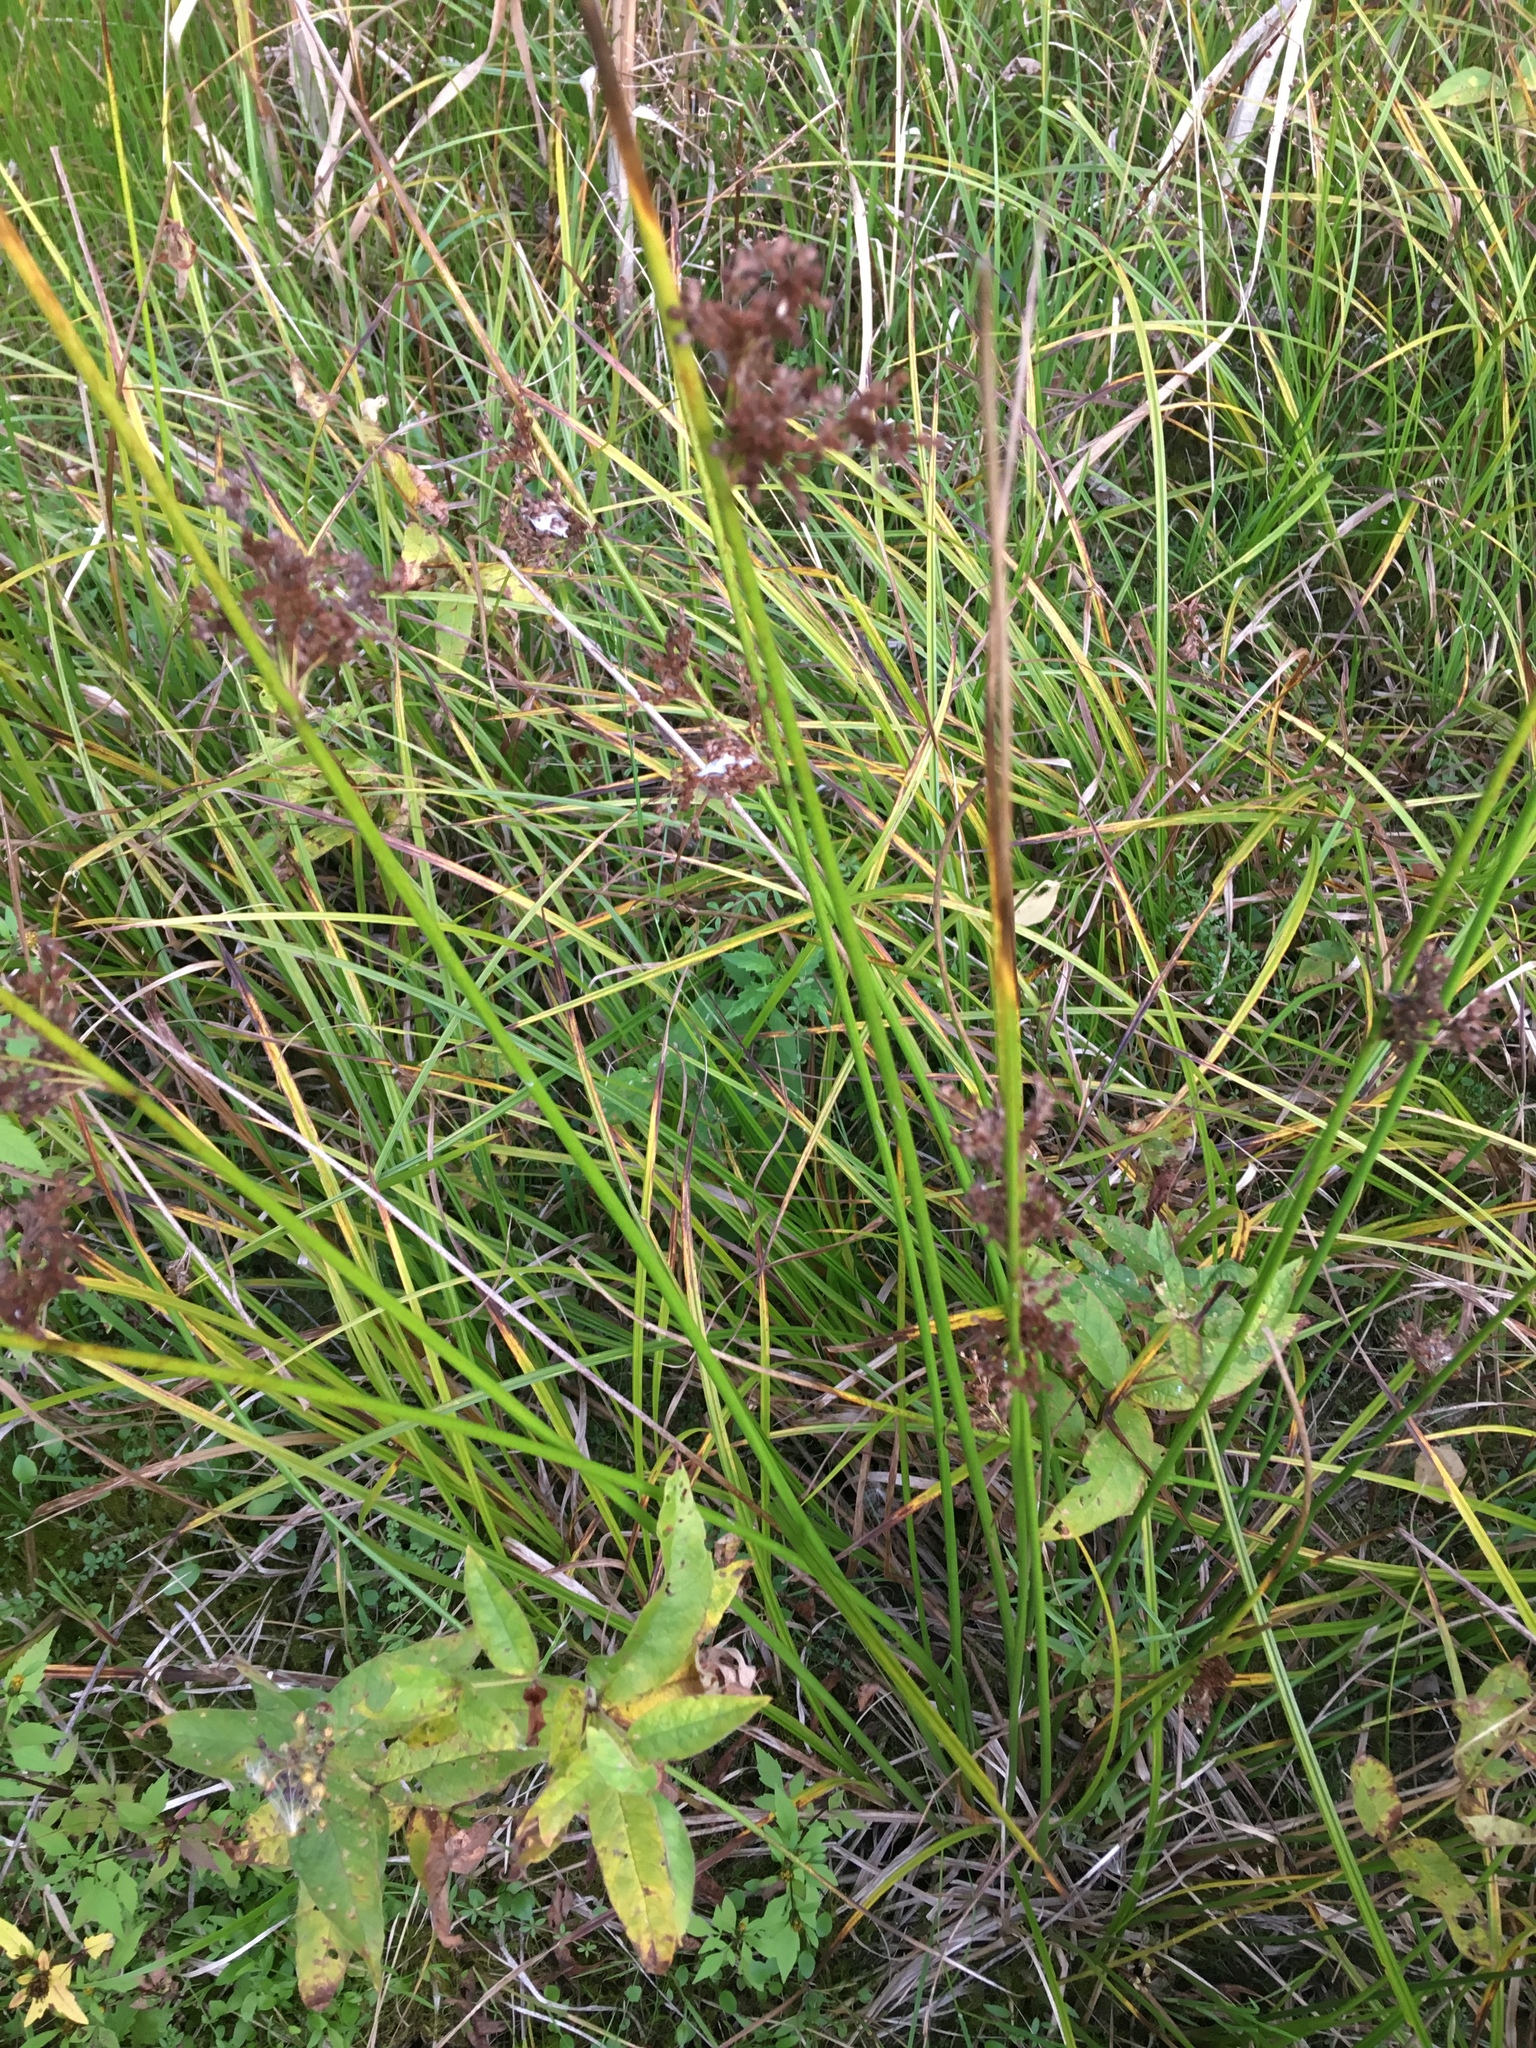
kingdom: Plantae
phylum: Tracheophyta
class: Liliopsida
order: Poales
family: Juncaceae
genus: Juncus
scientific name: Juncus effusus
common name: Soft rush
